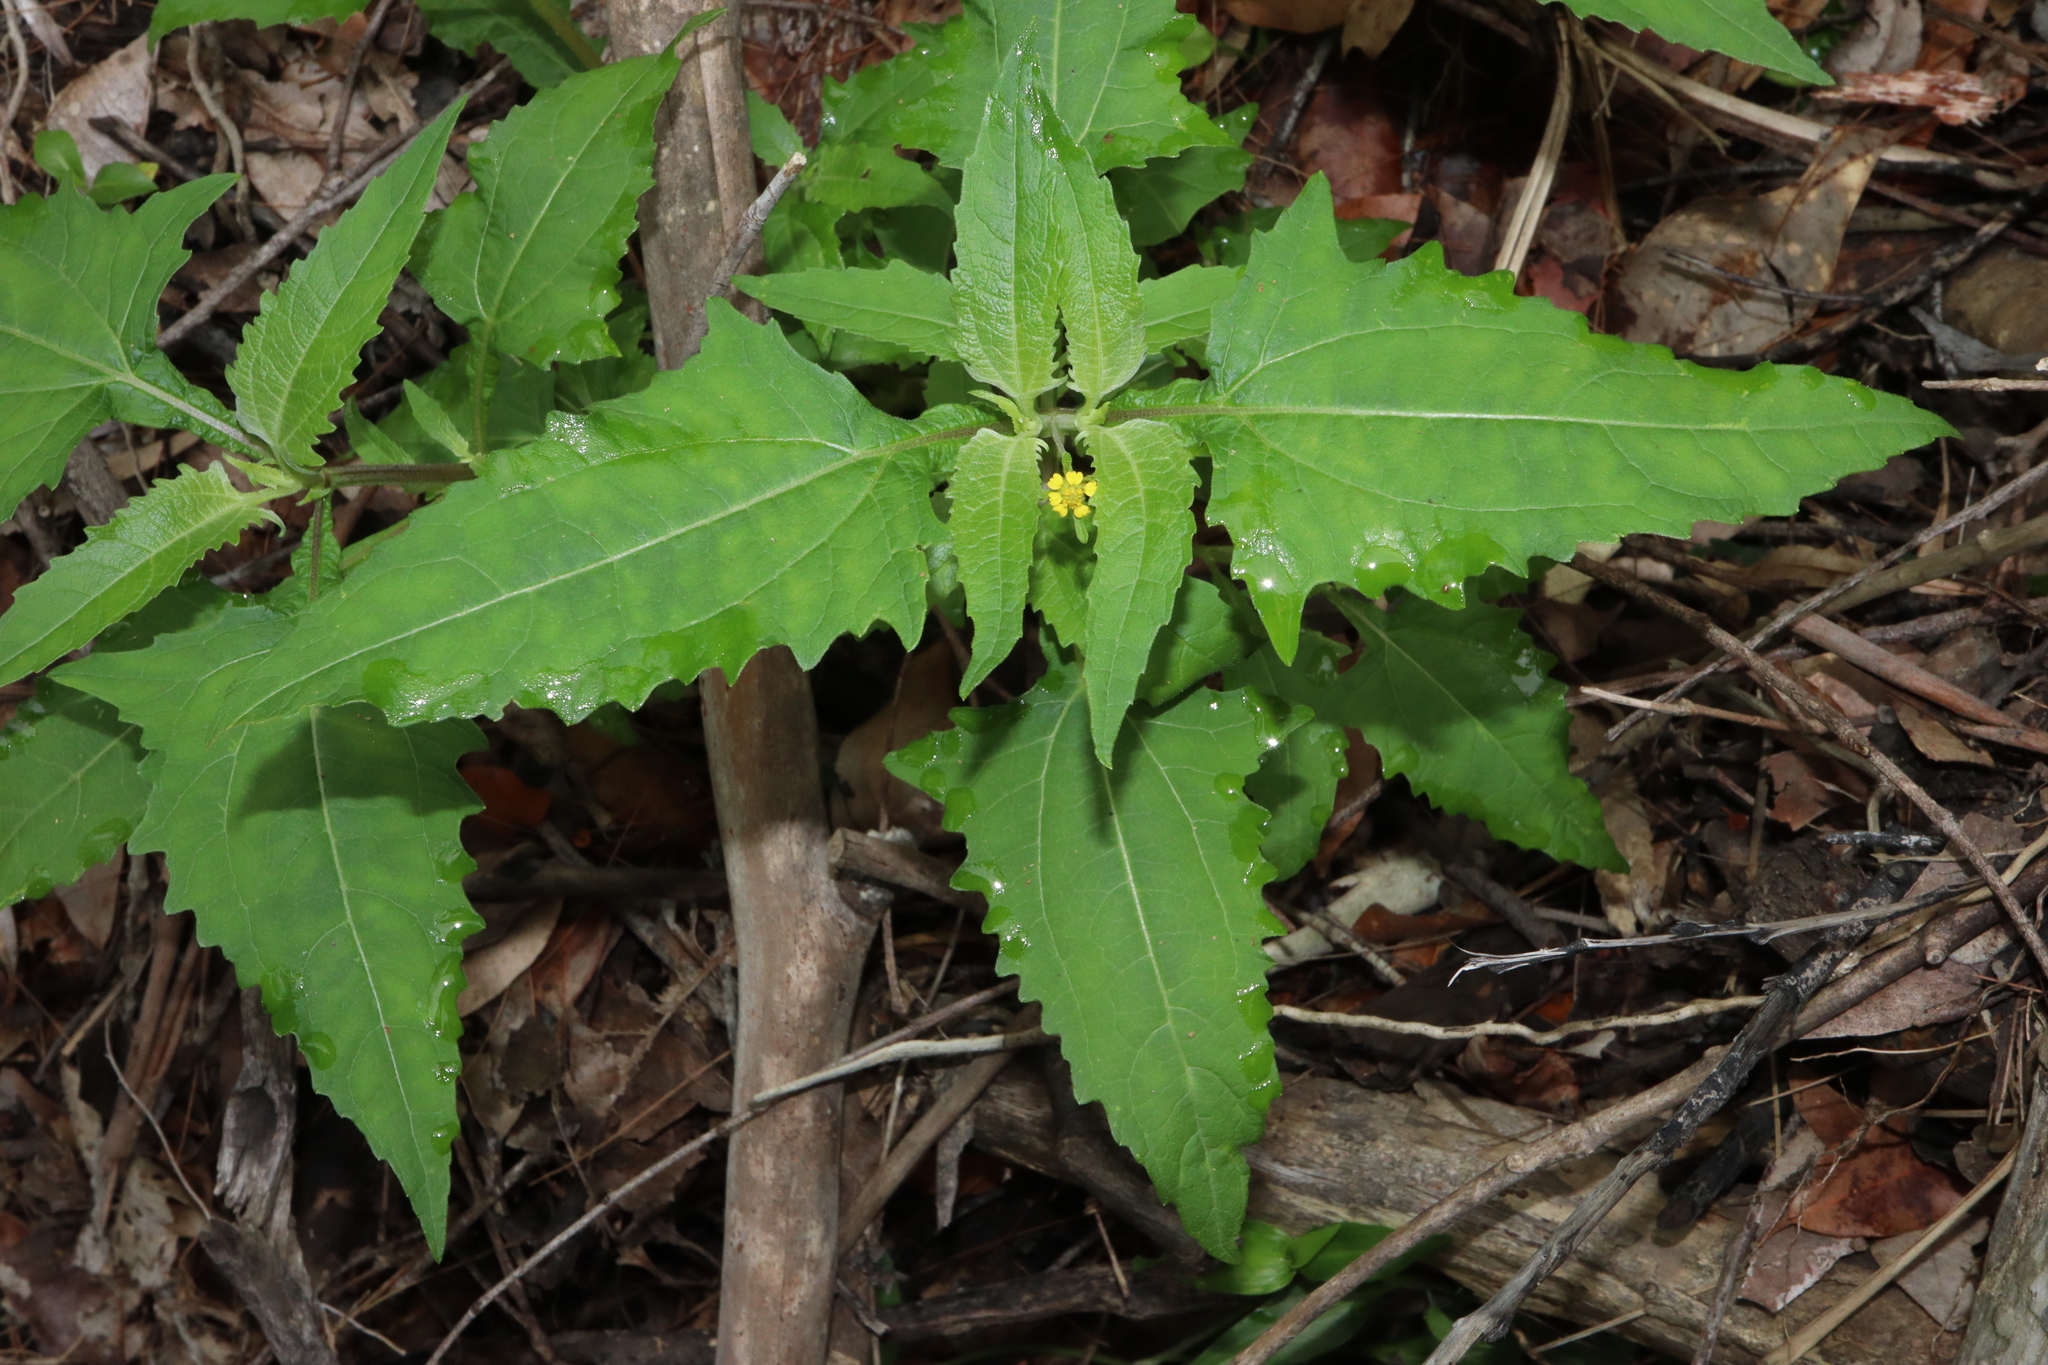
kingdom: Plantae
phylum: Tracheophyta
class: Magnoliopsida
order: Asterales
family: Asteraceae
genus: Sigesbeckia
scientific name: Sigesbeckia orientalis
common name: Eastern st paul's-wort
